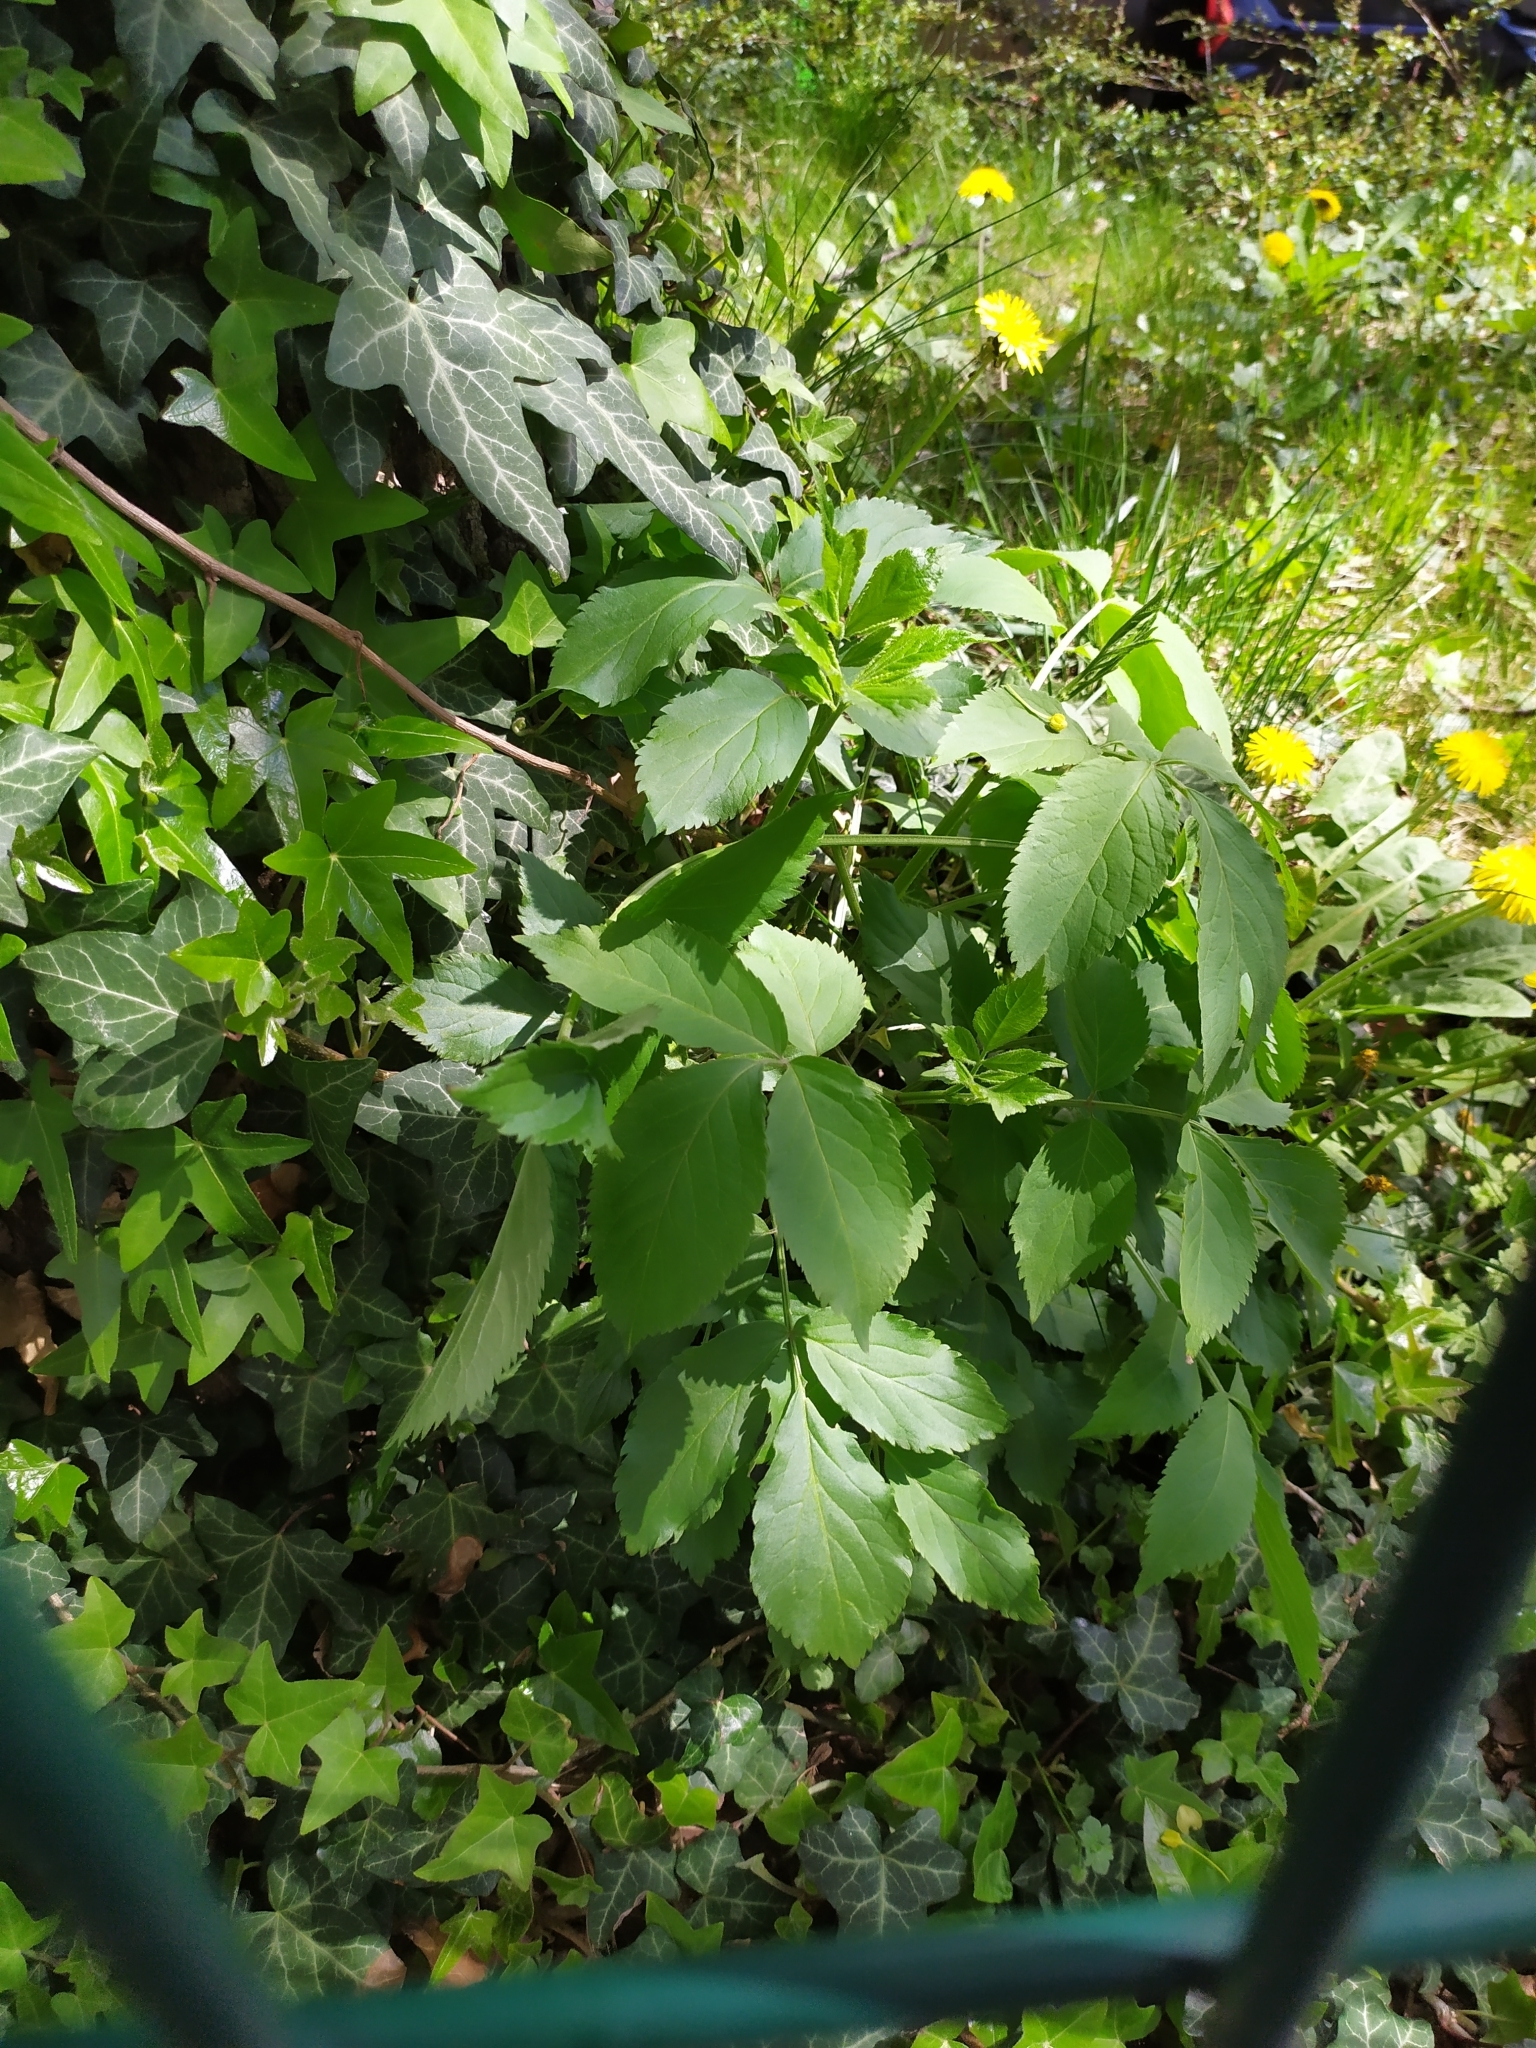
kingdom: Plantae
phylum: Tracheophyta
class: Magnoliopsida
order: Dipsacales
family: Viburnaceae
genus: Sambucus
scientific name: Sambucus nigra
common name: Elder
